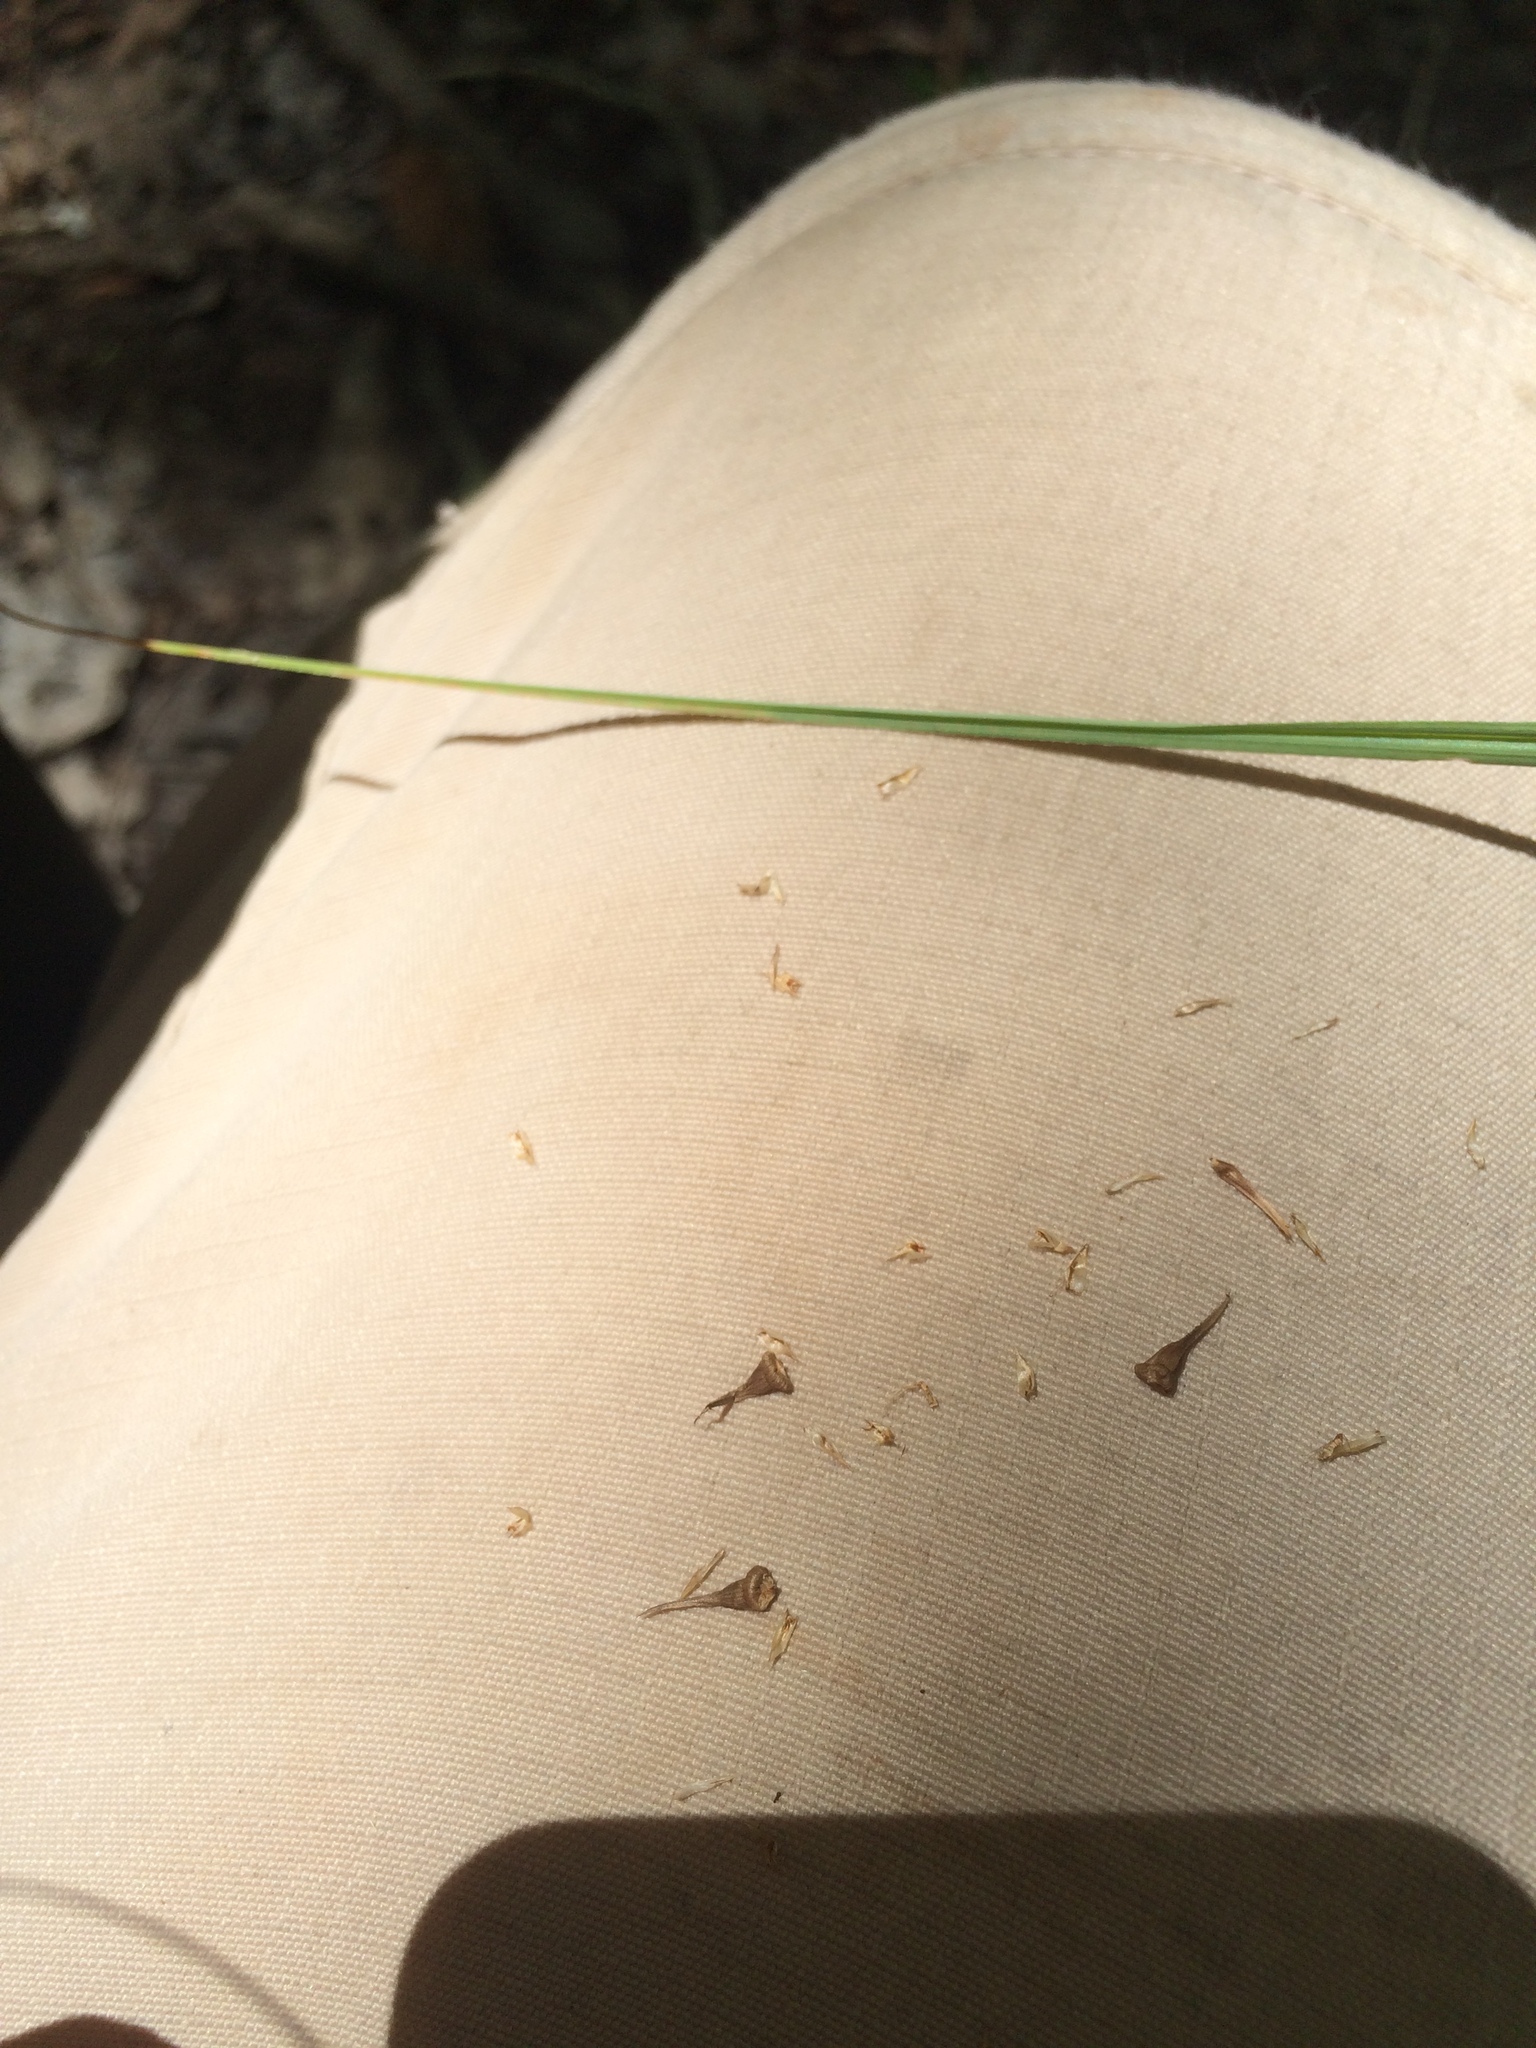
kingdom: Plantae
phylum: Tracheophyta
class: Liliopsida
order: Poales
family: Cyperaceae
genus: Carex
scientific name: Carex crus-corvi
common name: Crow-spur sedge
